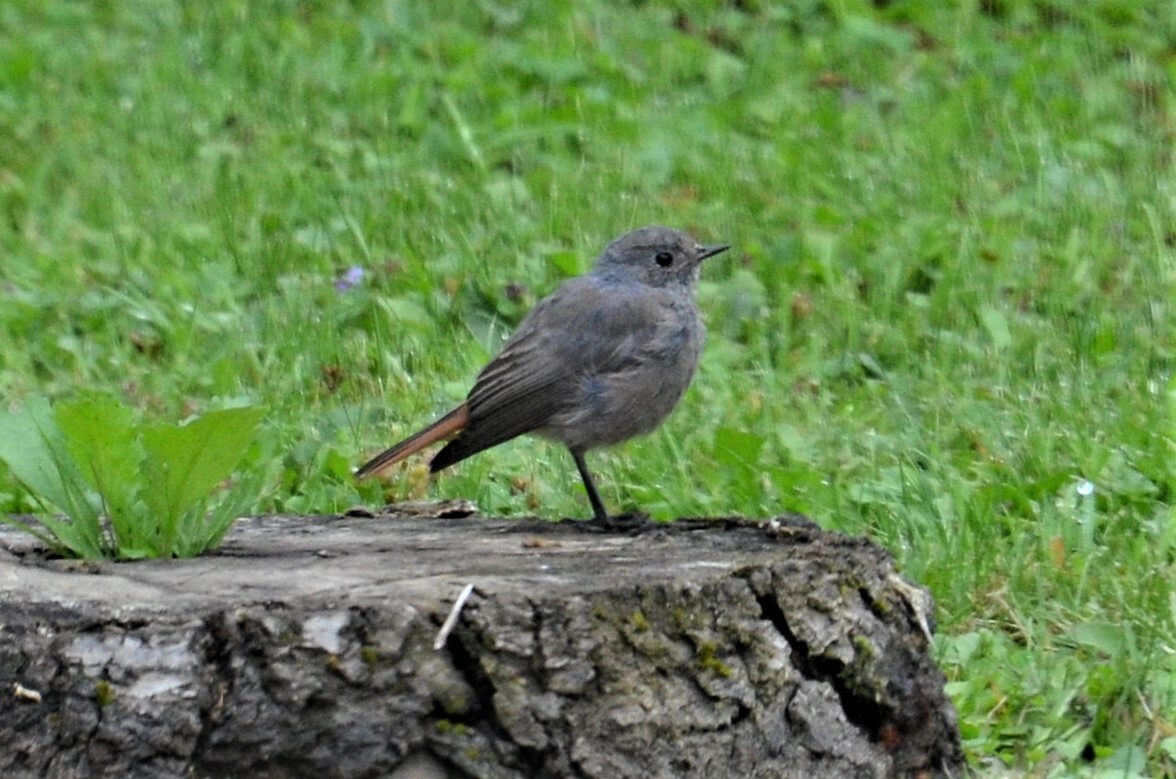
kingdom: Animalia
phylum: Chordata
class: Aves
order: Passeriformes
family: Muscicapidae
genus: Phoenicurus
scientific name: Phoenicurus ochruros
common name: Black redstart
